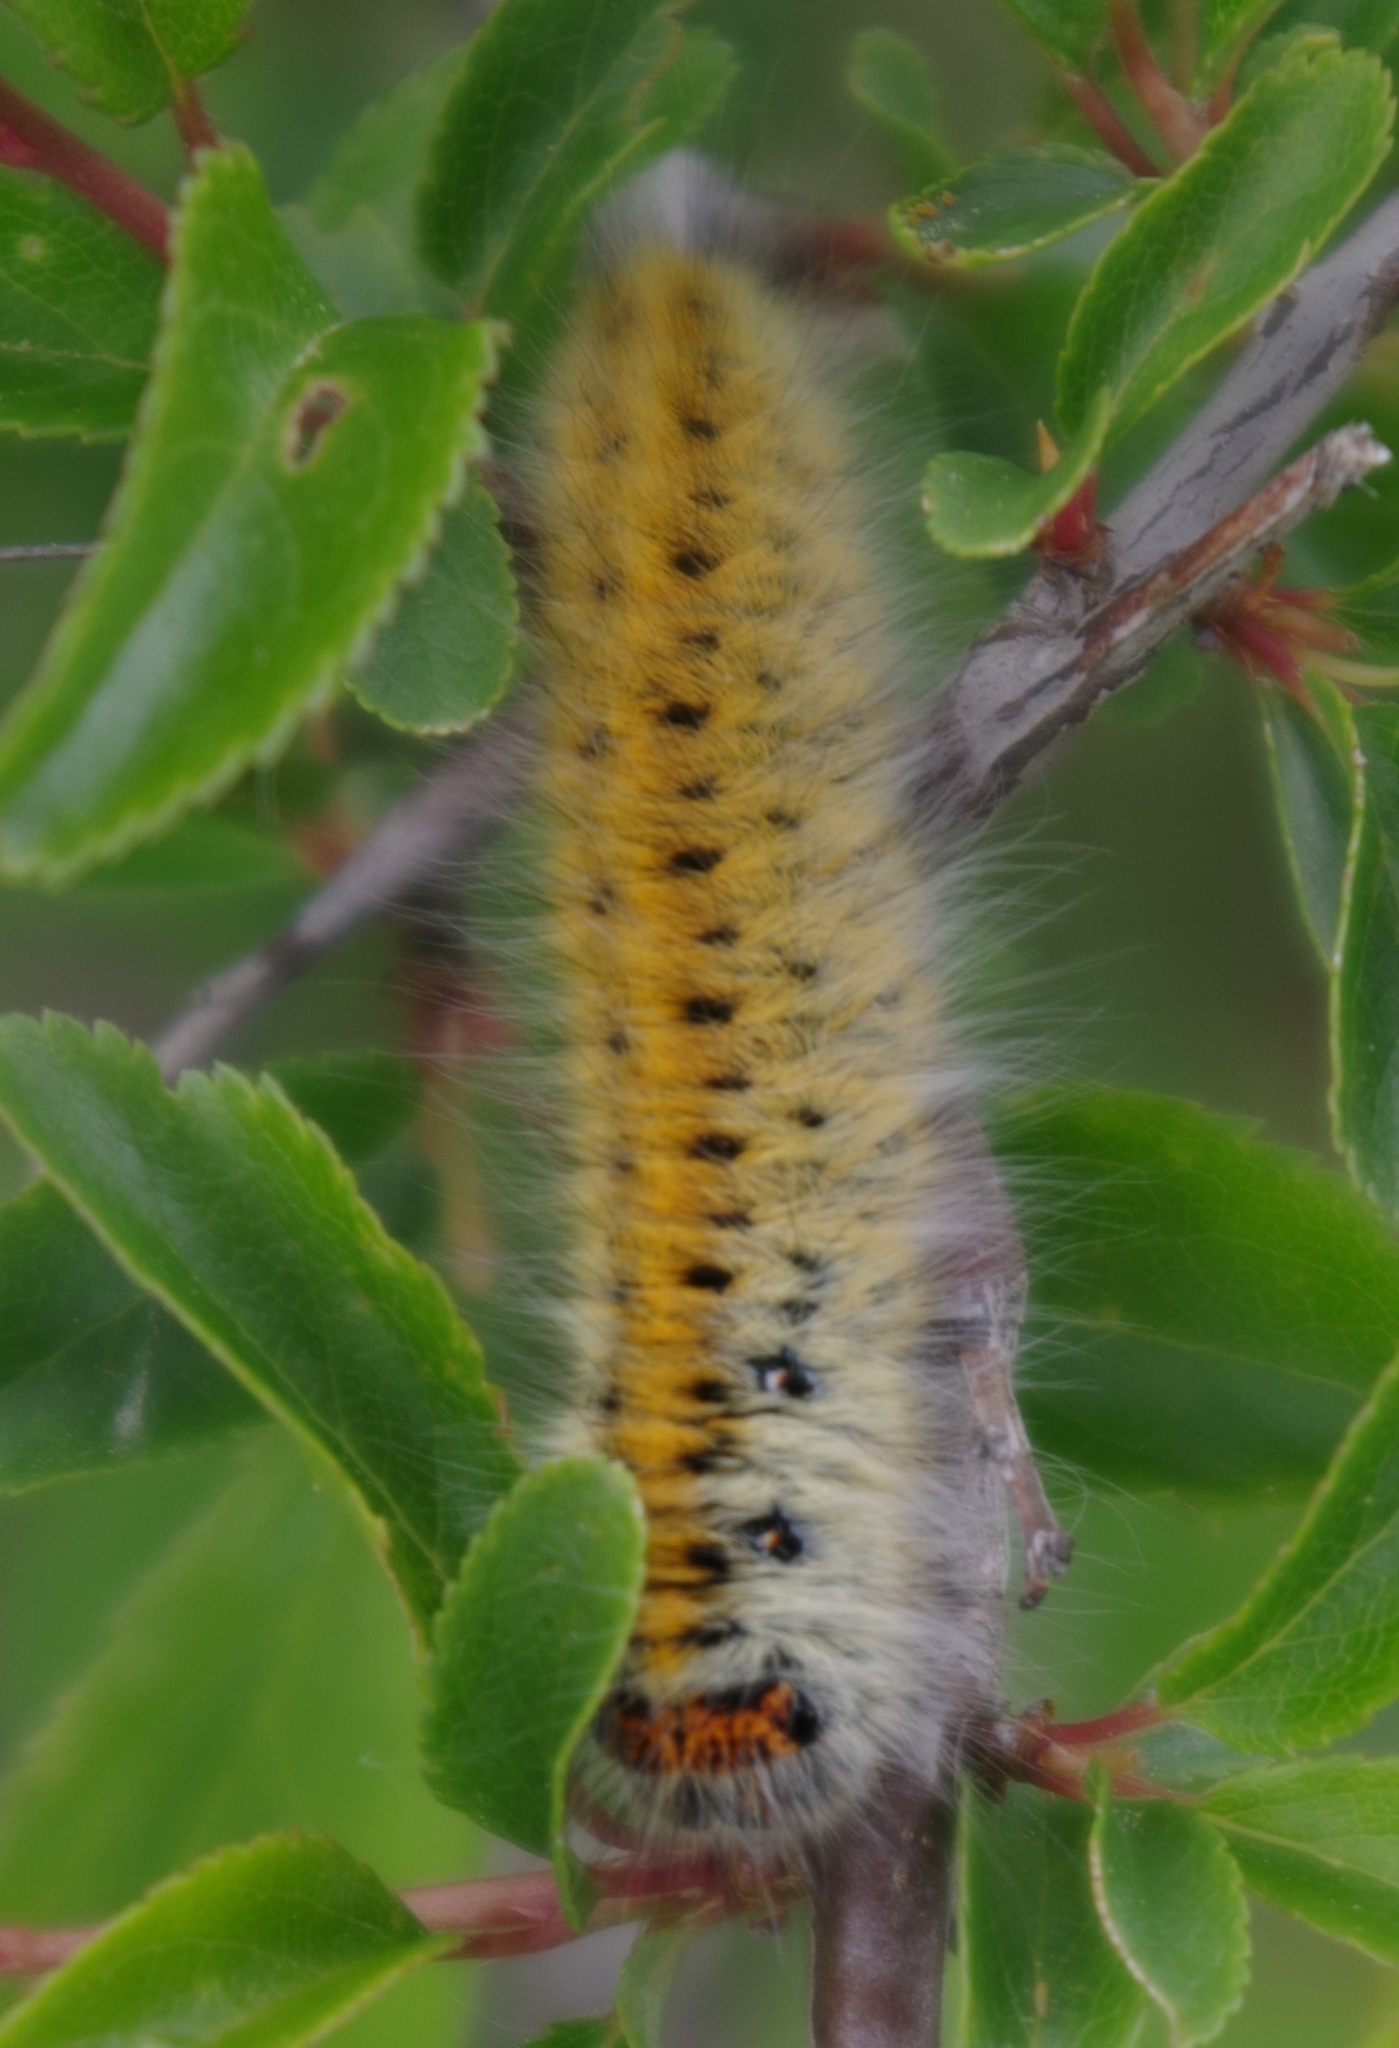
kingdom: Animalia
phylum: Arthropoda
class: Insecta
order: Lepidoptera
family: Lasiocampidae
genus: Lasiocampa
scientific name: Lasiocampa trifolii
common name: Grass eggar
